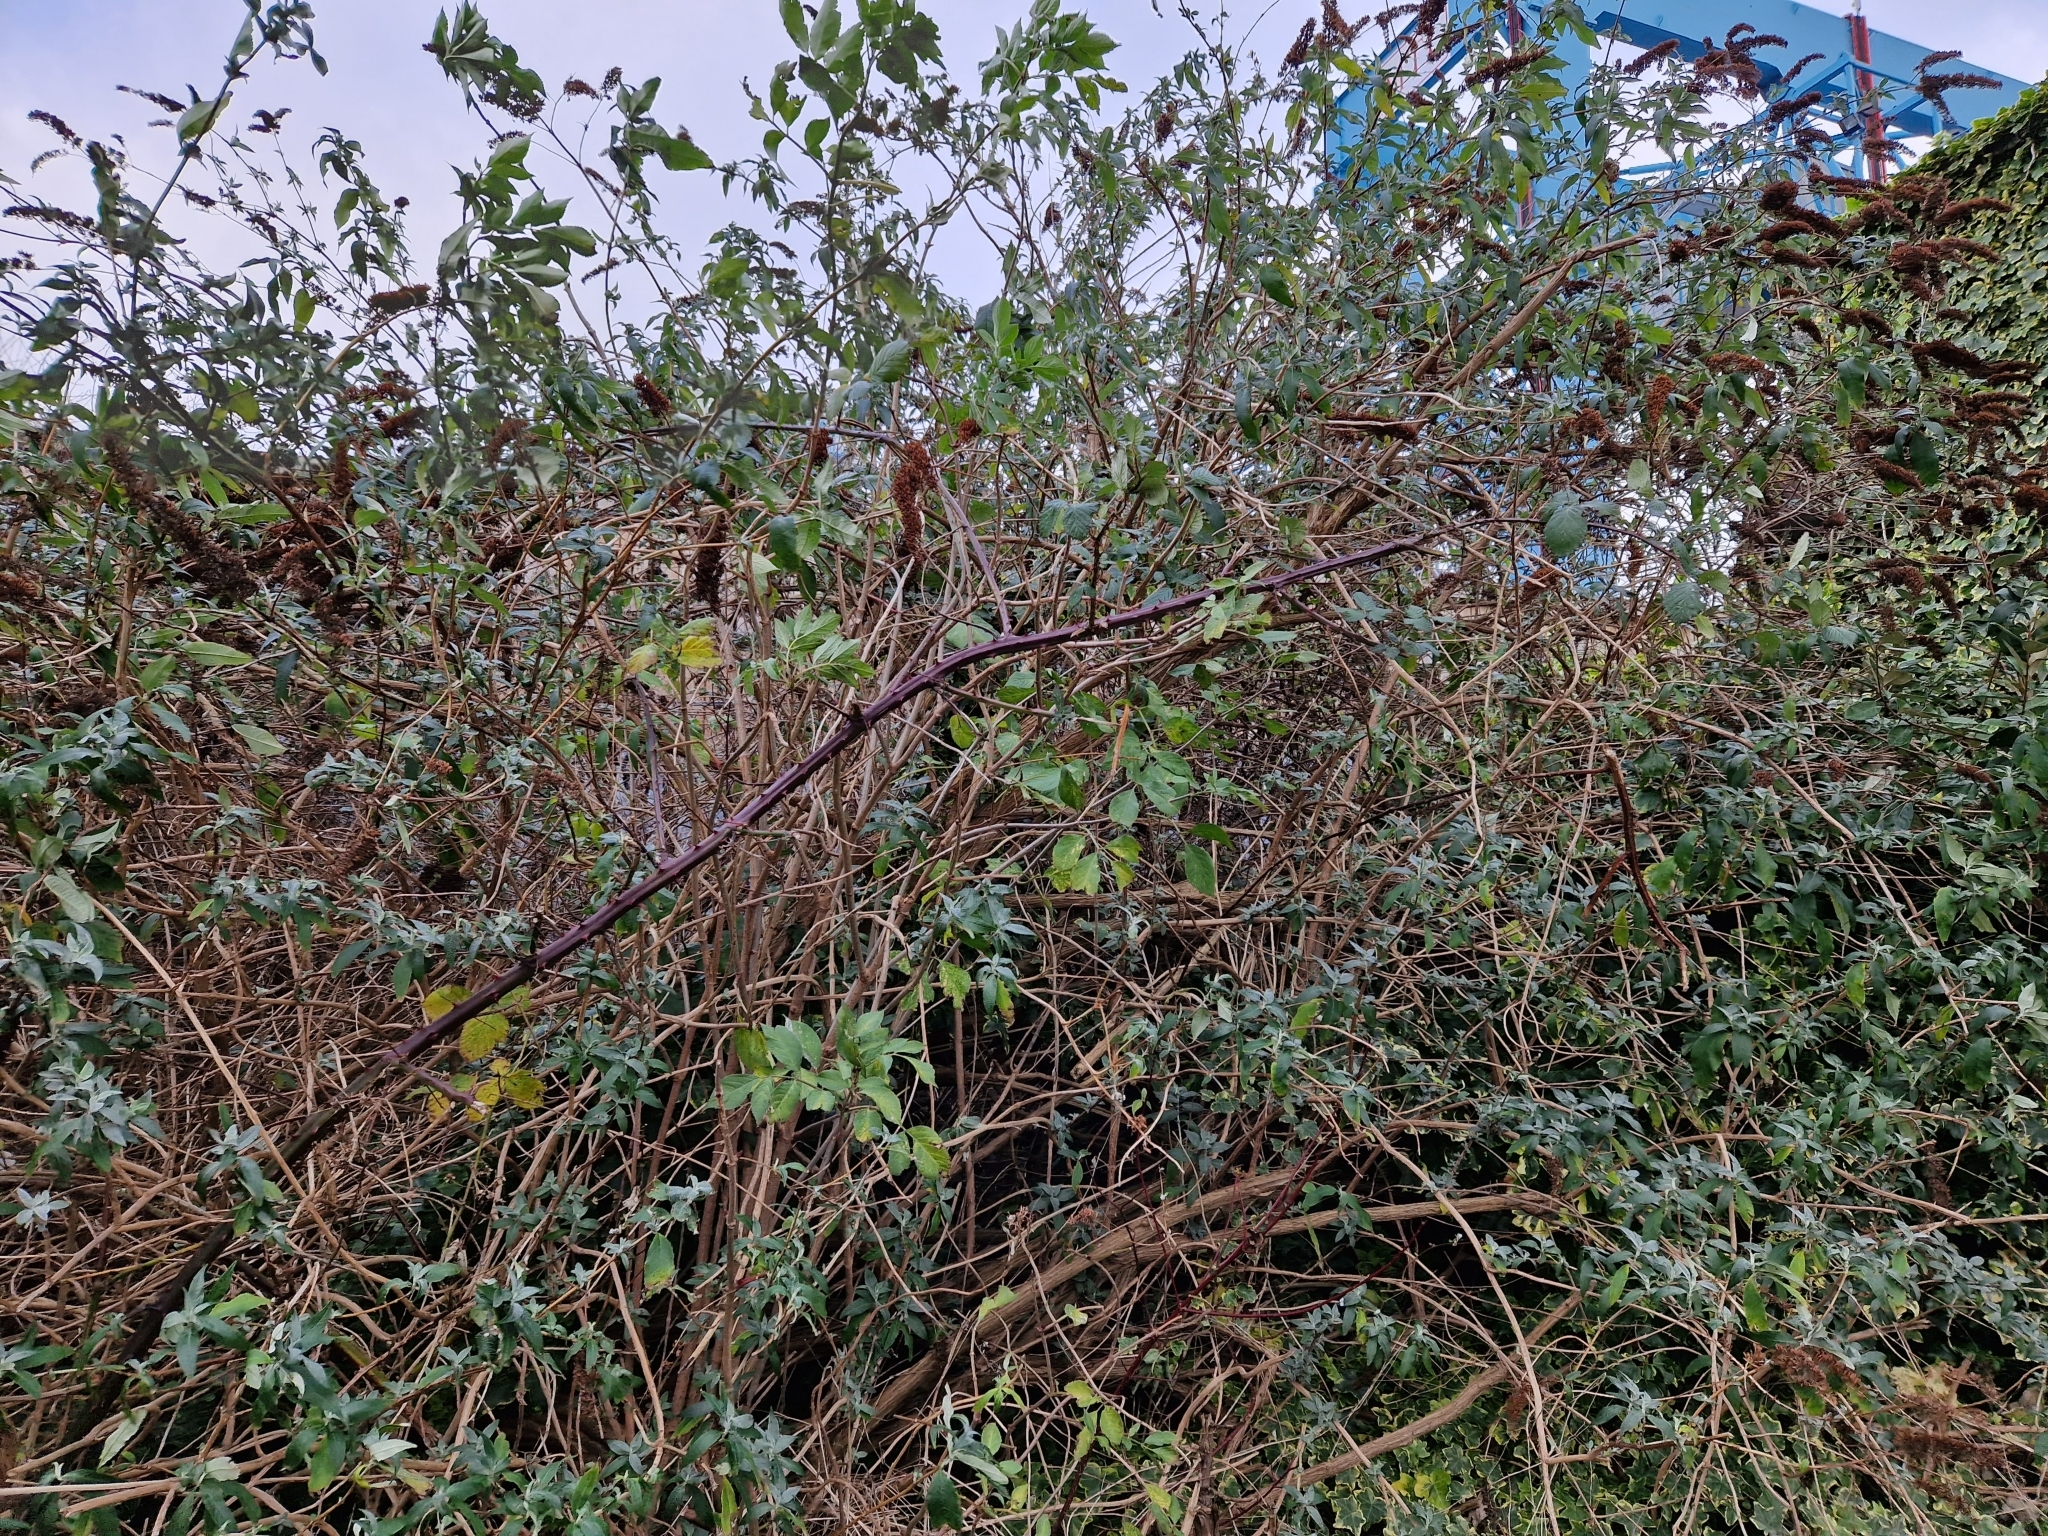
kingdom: Plantae
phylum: Tracheophyta
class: Magnoliopsida
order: Lamiales
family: Scrophulariaceae
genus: Buddleja
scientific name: Buddleja davidii
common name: Butterfly-bush
